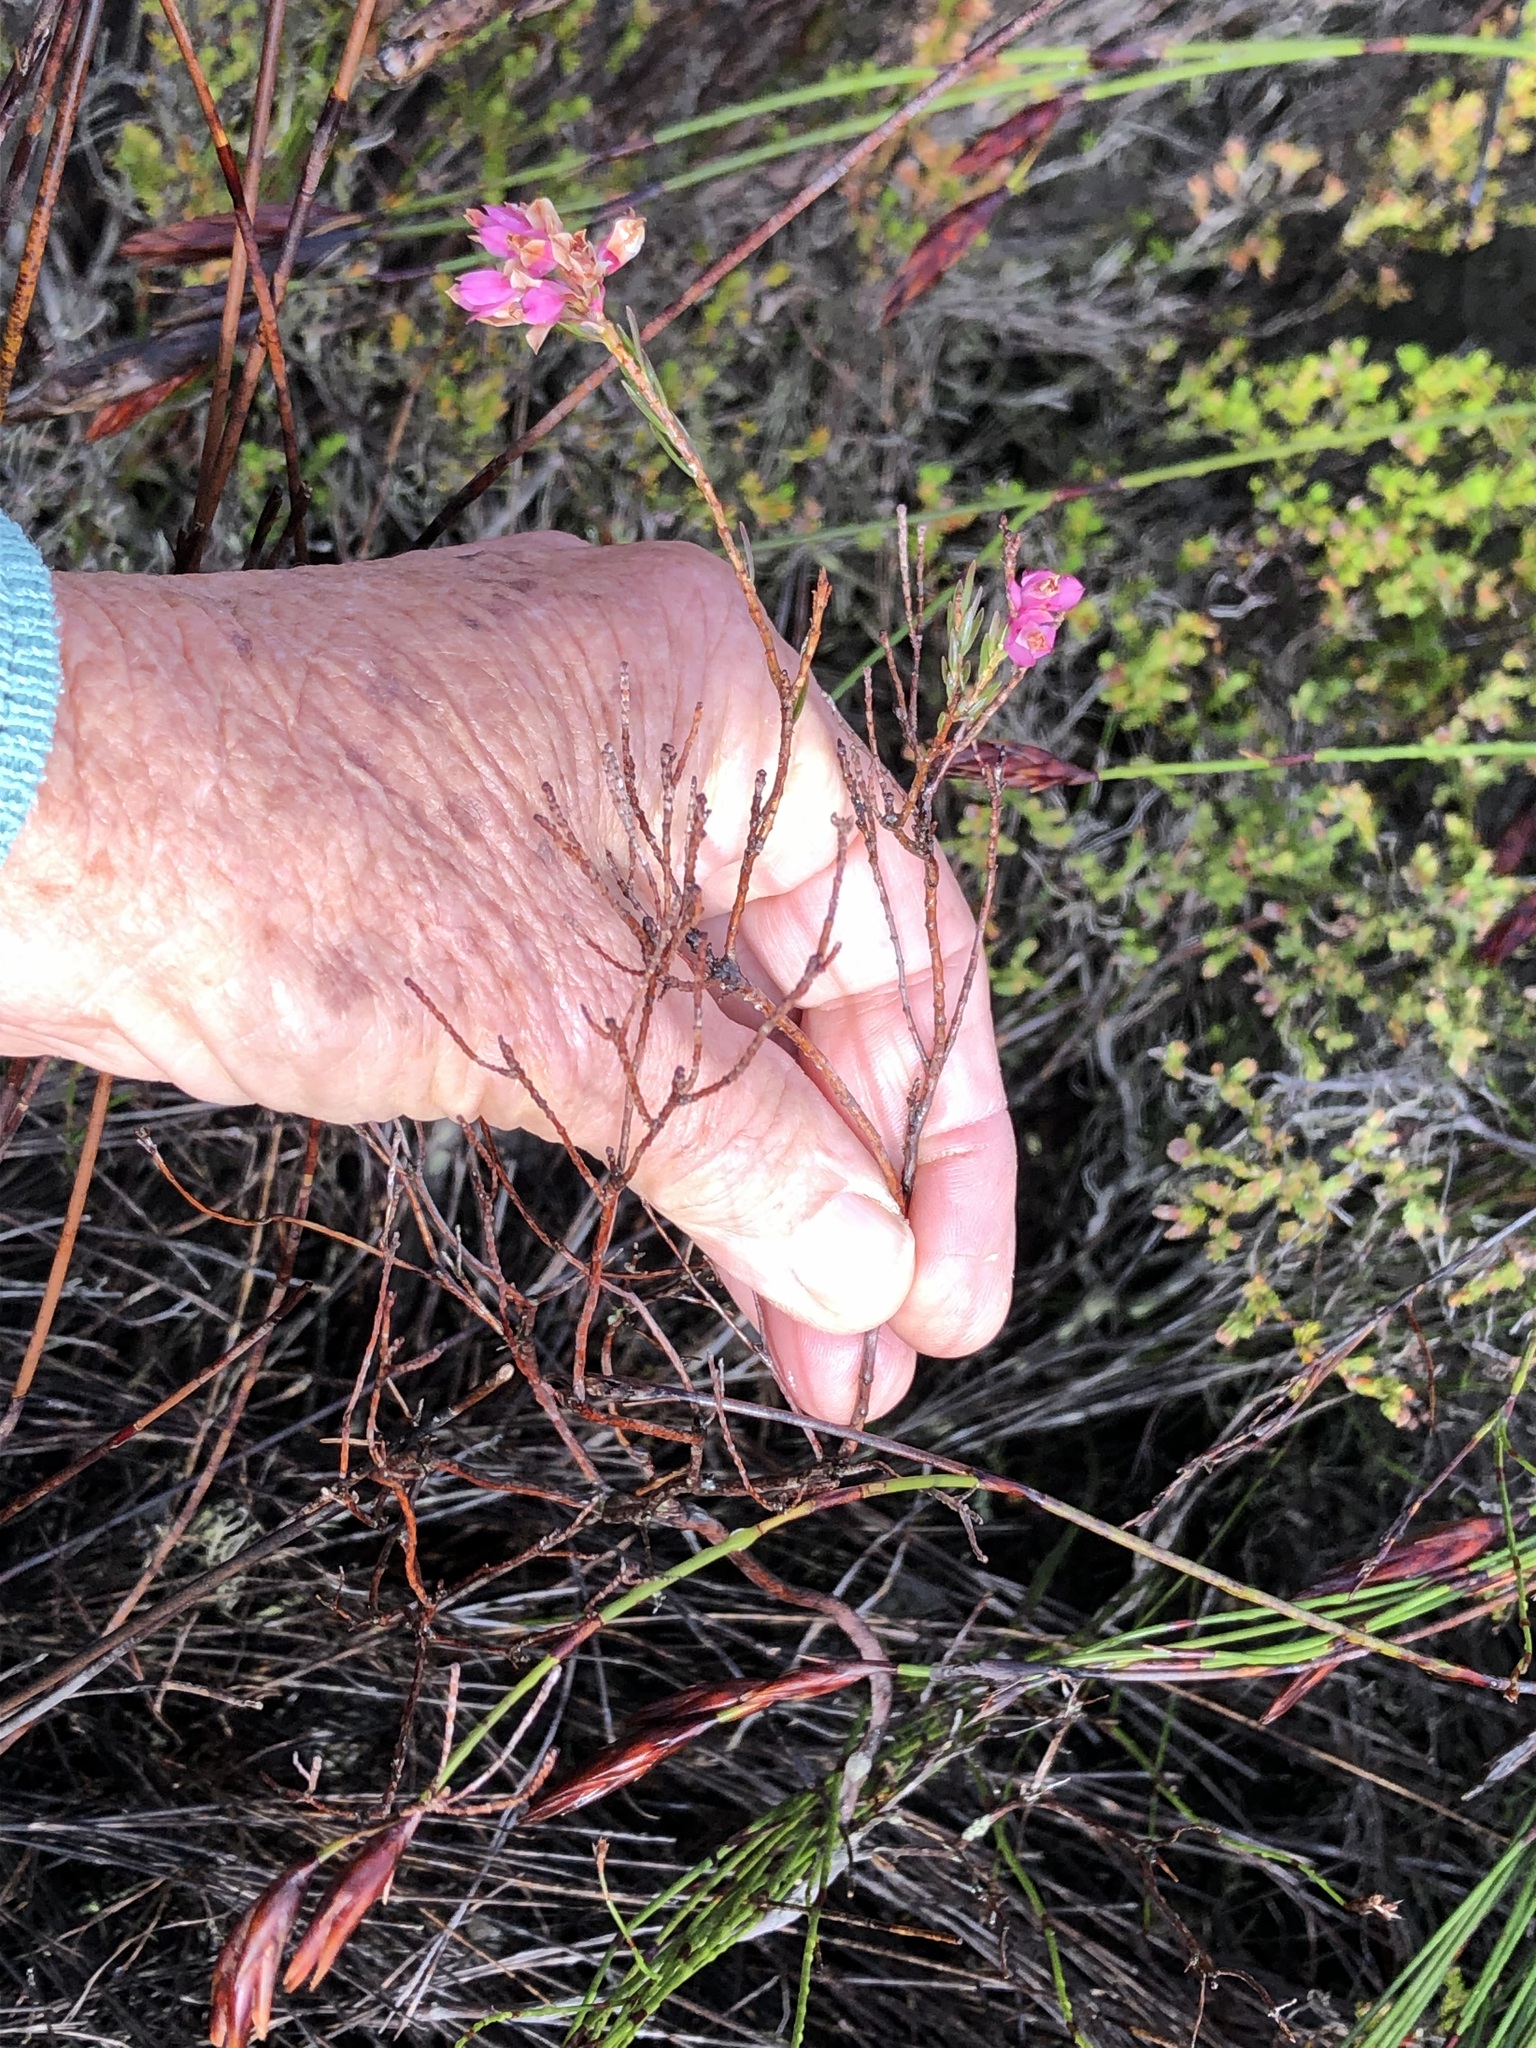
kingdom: Plantae
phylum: Tracheophyta
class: Magnoliopsida
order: Ericales
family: Ericaceae
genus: Erica
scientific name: Erica corifolia
